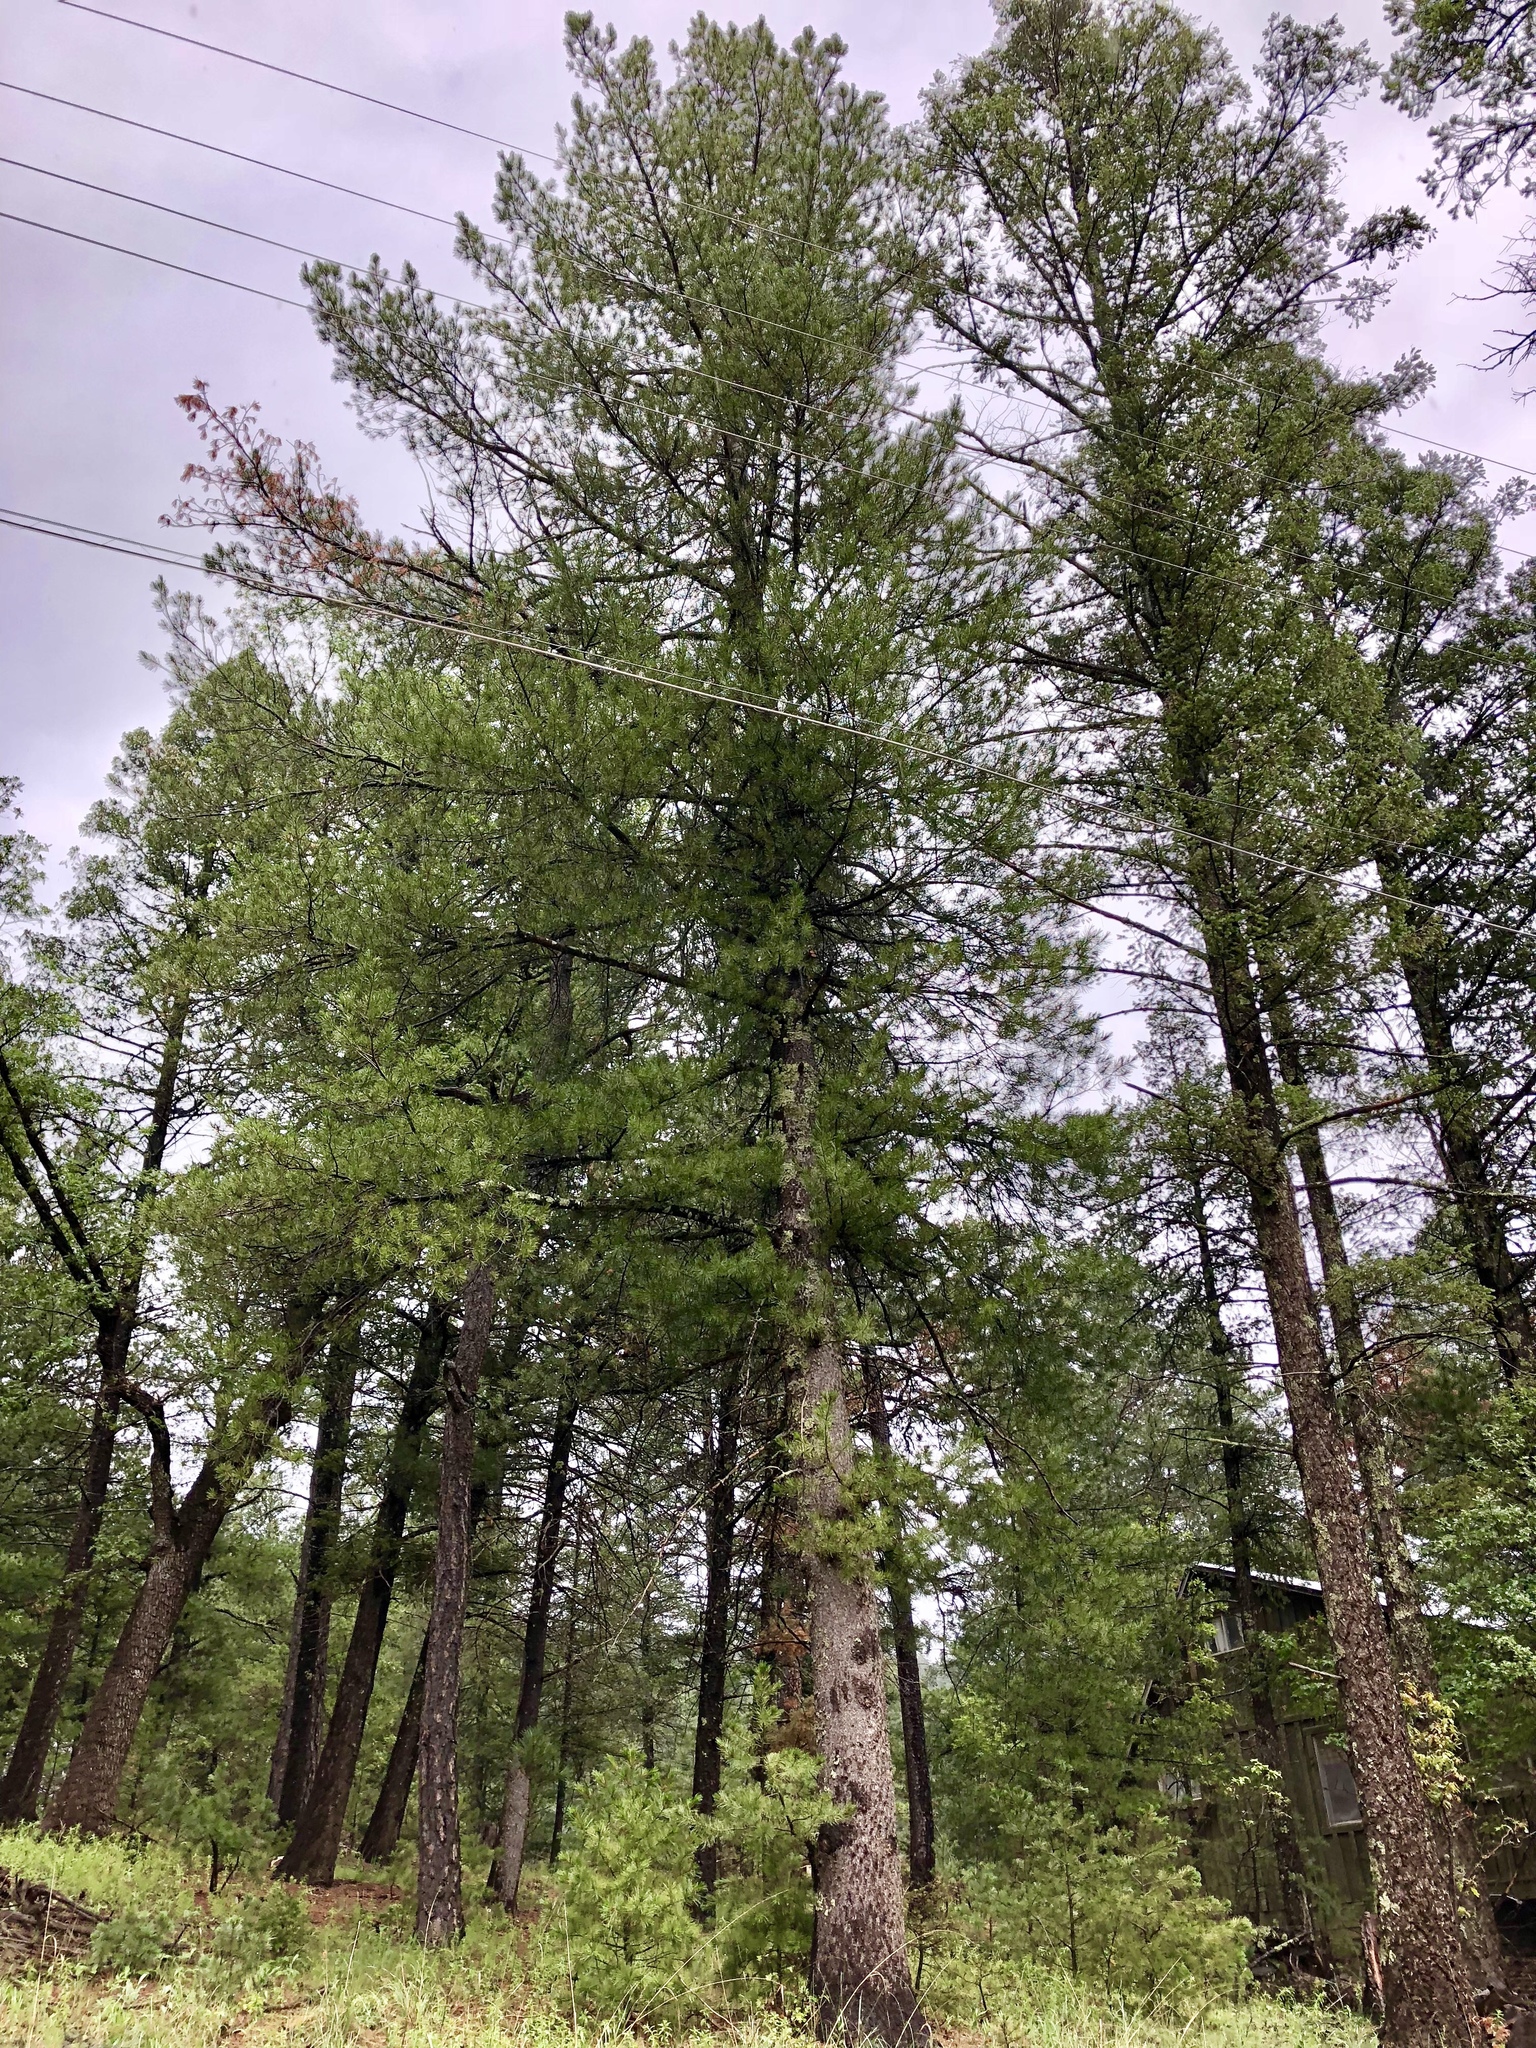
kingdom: Plantae
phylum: Tracheophyta
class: Pinopsida
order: Pinales
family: Pinaceae
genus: Pinus
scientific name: Pinus strobiformis
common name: Southwestern white pine
